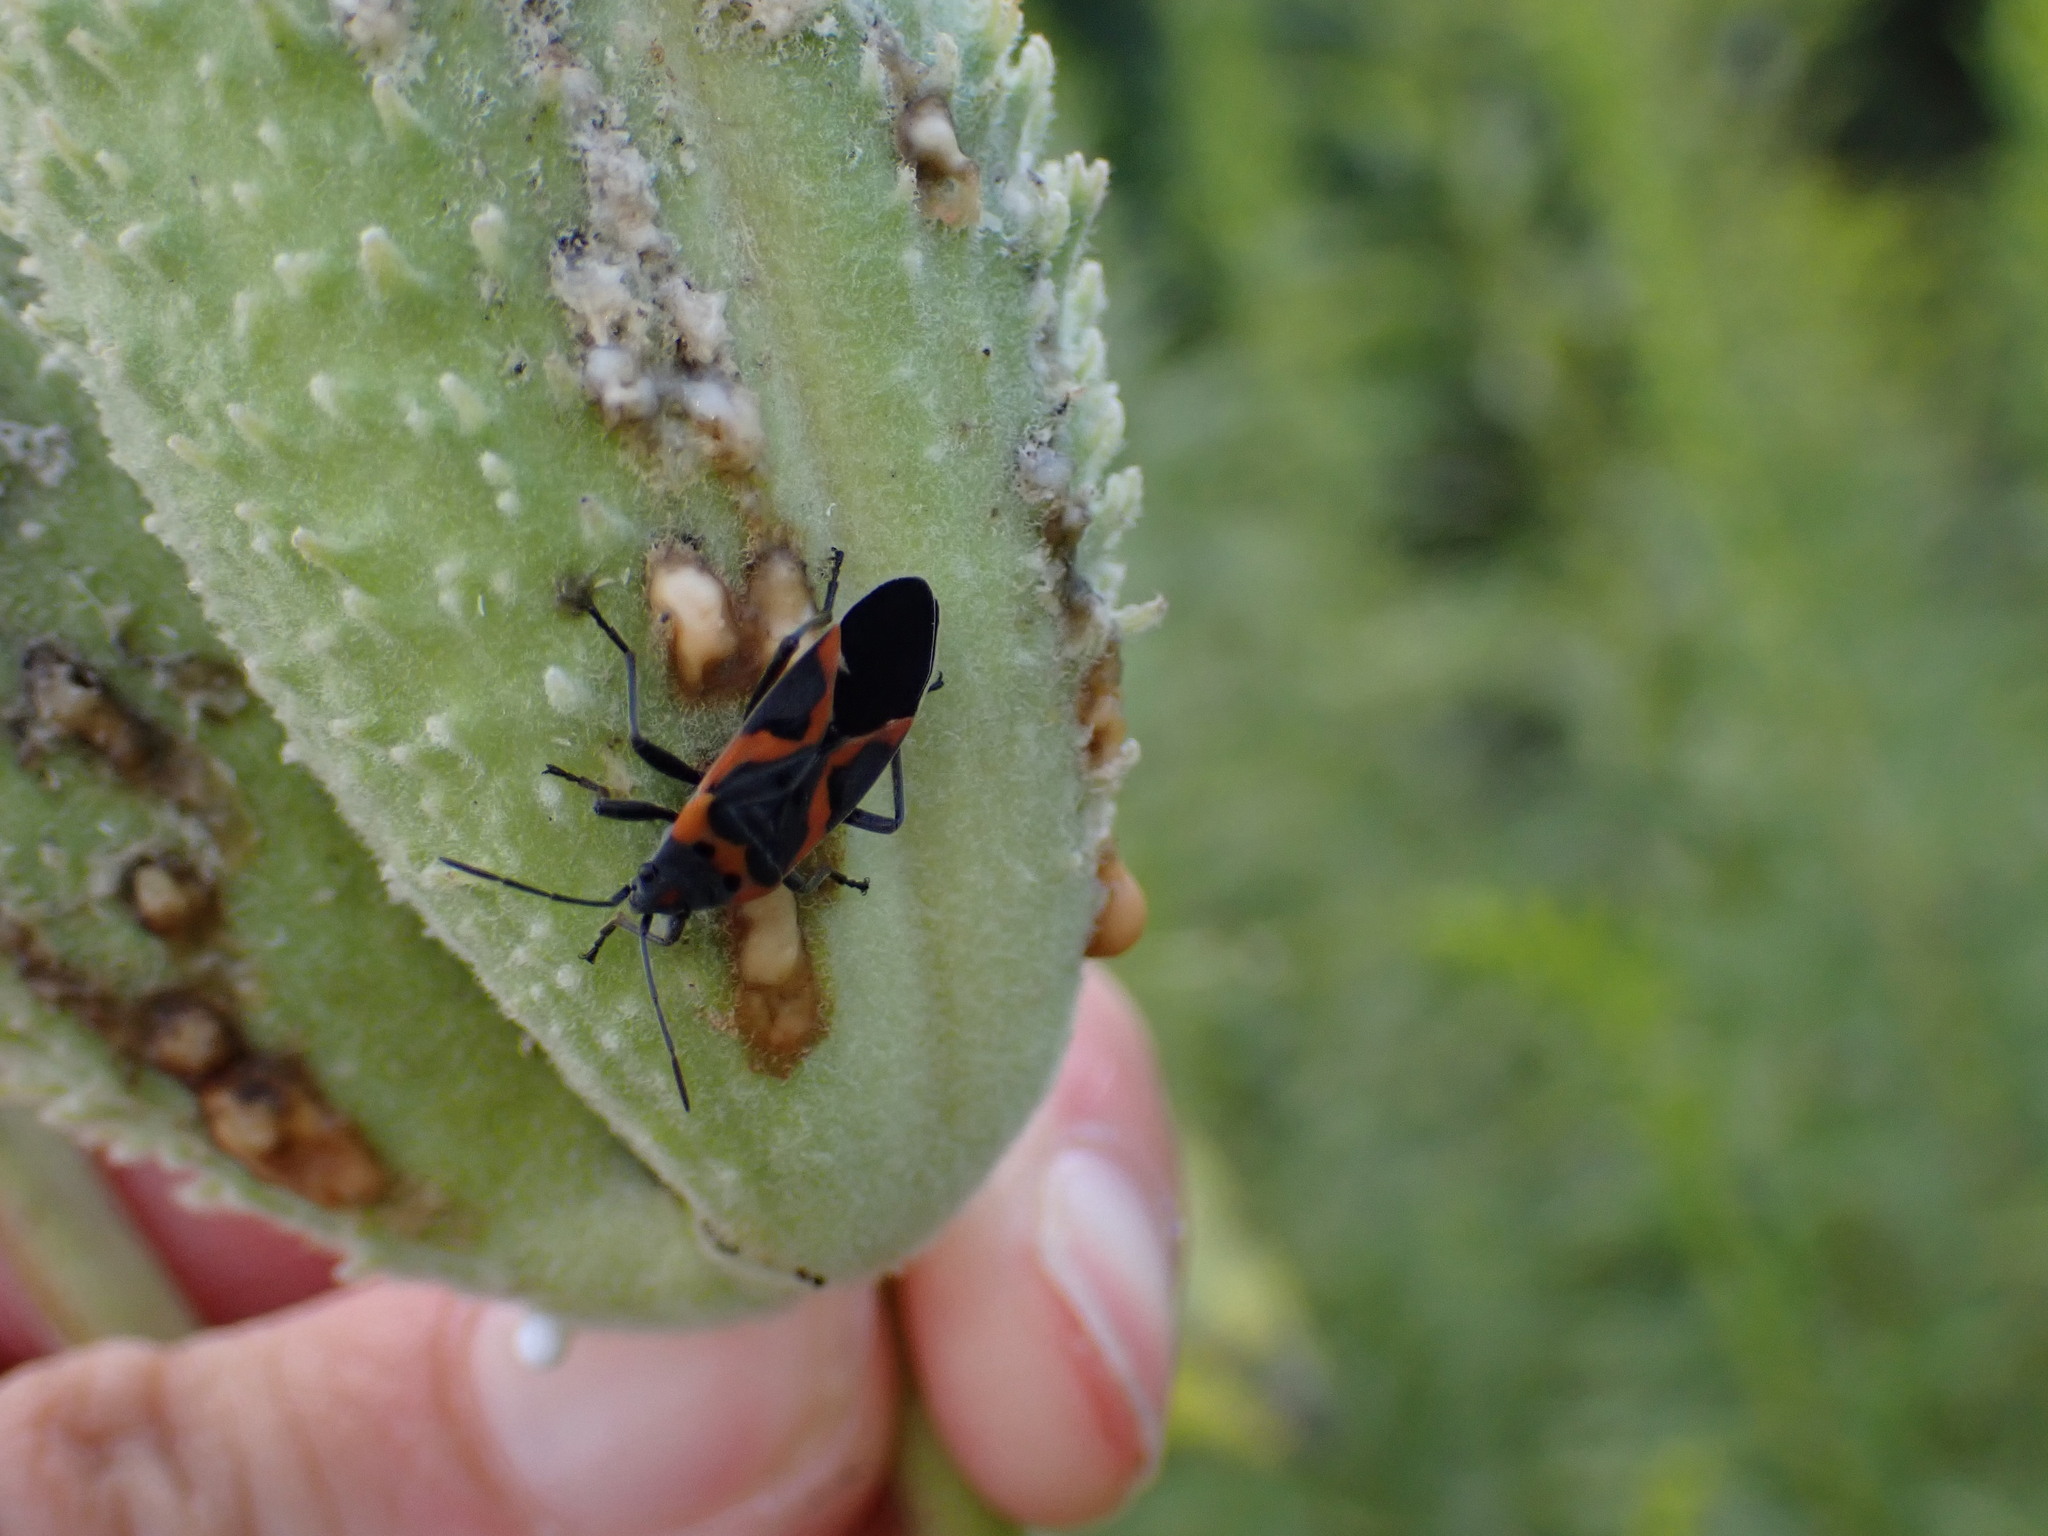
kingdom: Animalia
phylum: Arthropoda
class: Insecta
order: Hemiptera
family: Lygaeidae
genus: Lygaeus
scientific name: Lygaeus kalmii
